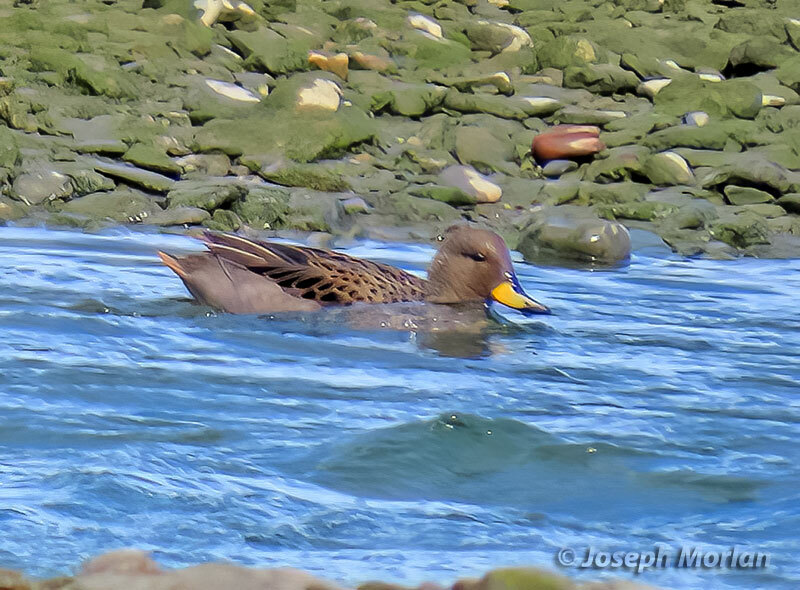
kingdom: Animalia
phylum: Chordata
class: Aves
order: Anseriformes
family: Anatidae
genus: Anas
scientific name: Anas flavirostris
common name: Yellow-billed teal
